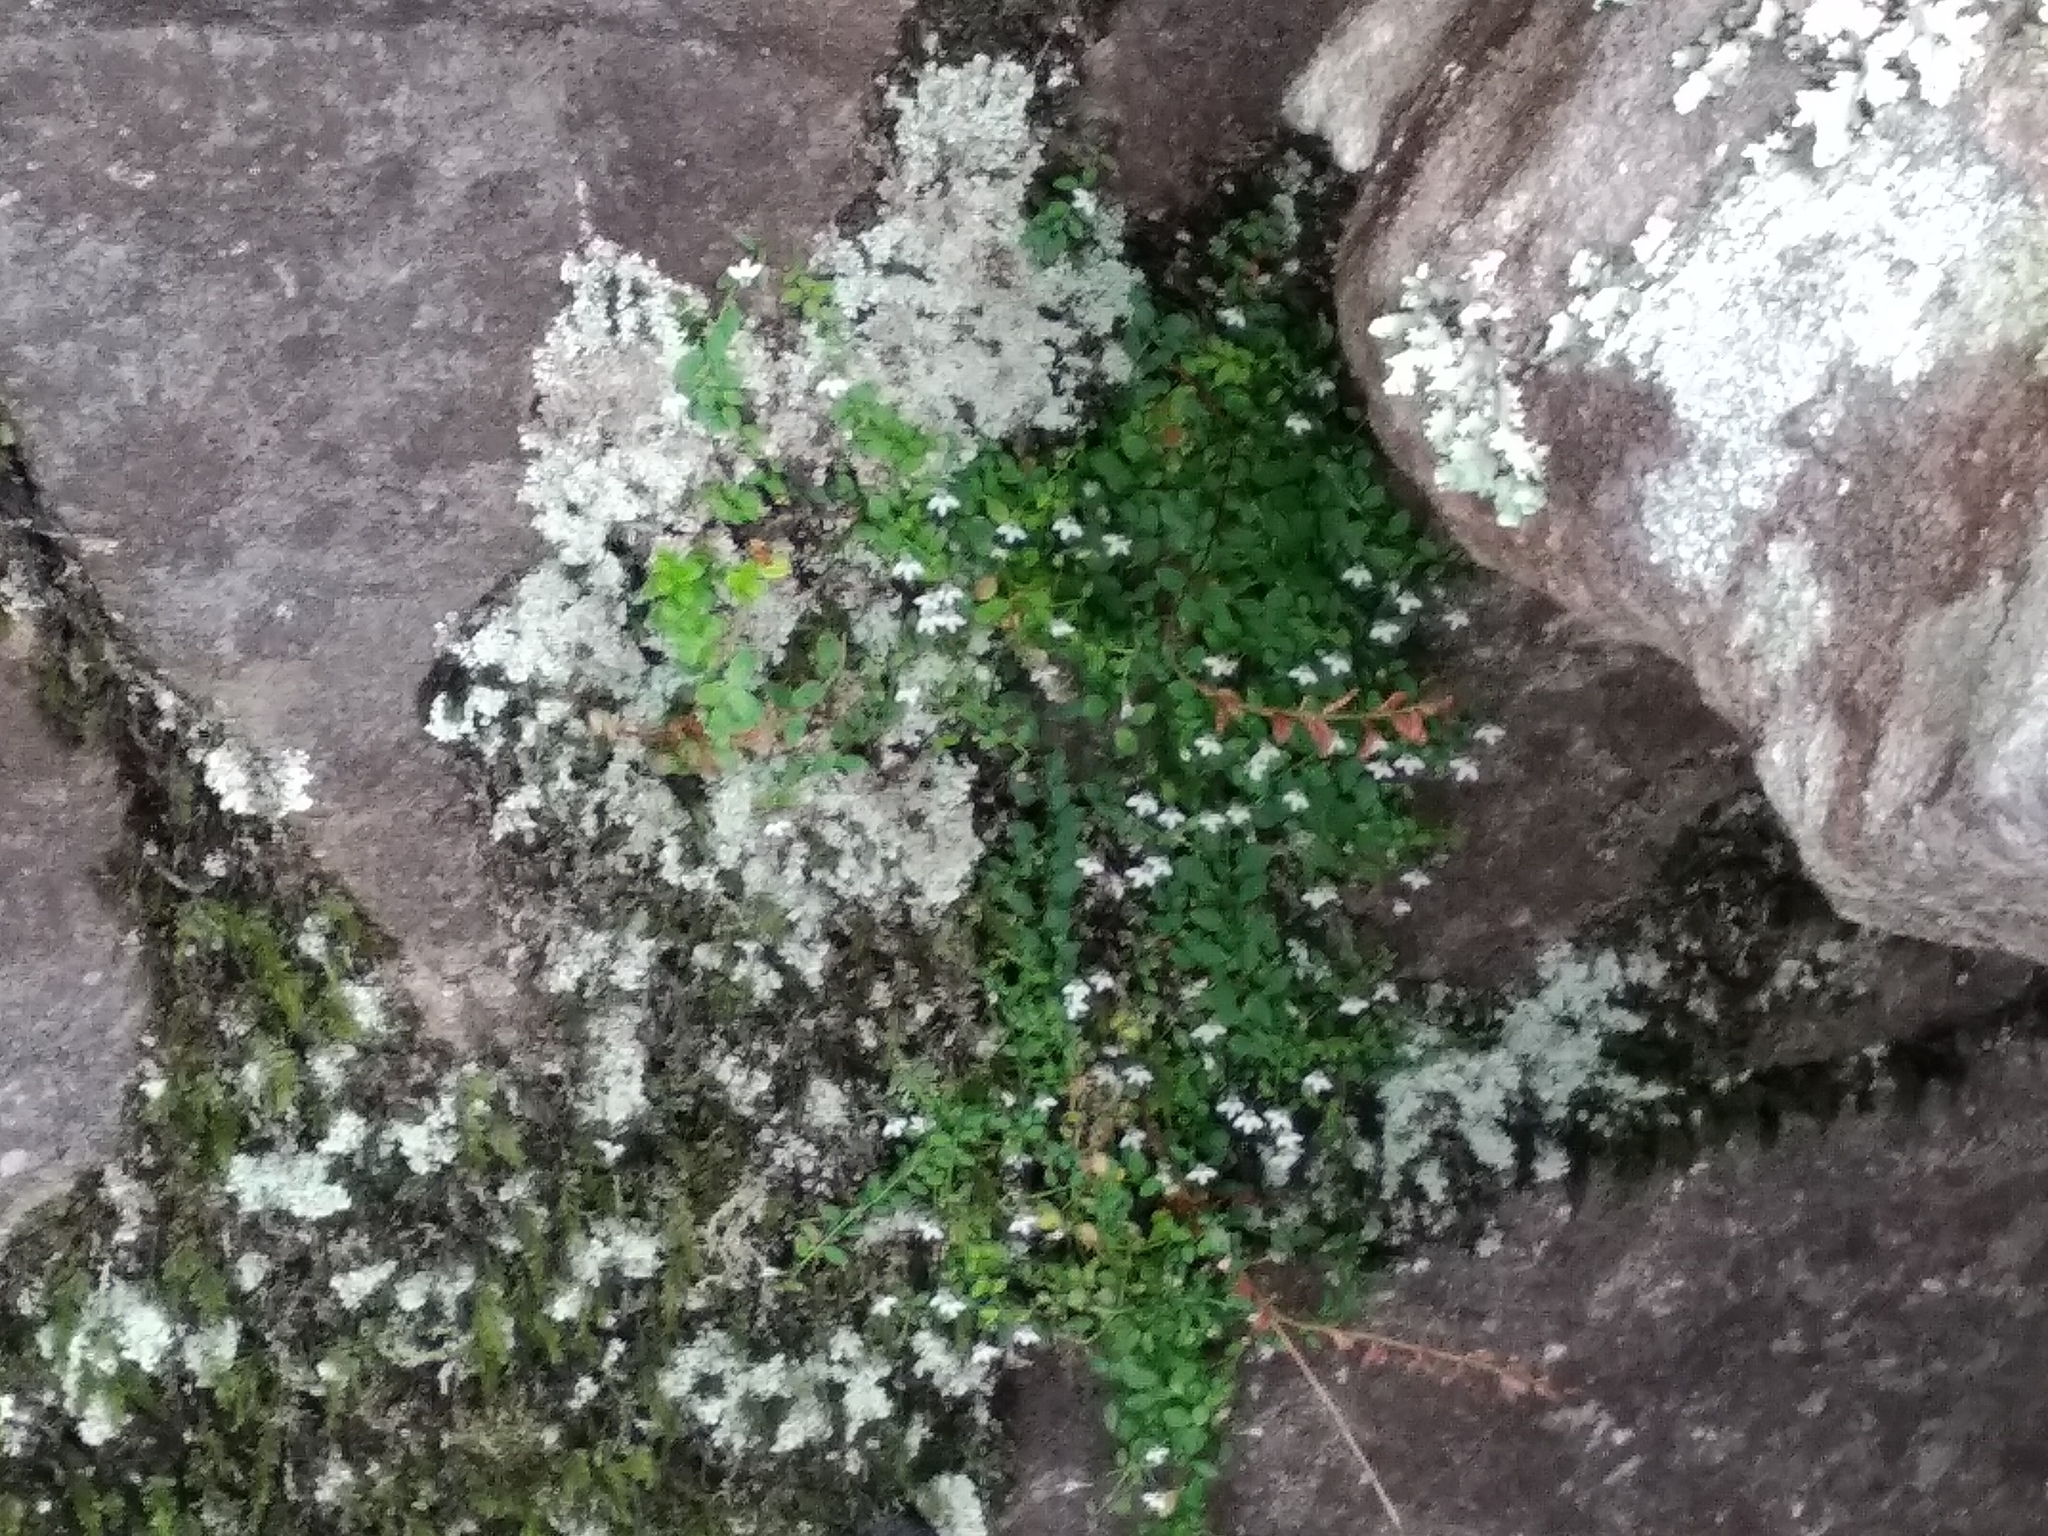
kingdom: Plantae
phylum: Tracheophyta
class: Magnoliopsida
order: Asterales
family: Campanulaceae
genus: Unigenes
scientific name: Unigenes humifusa
